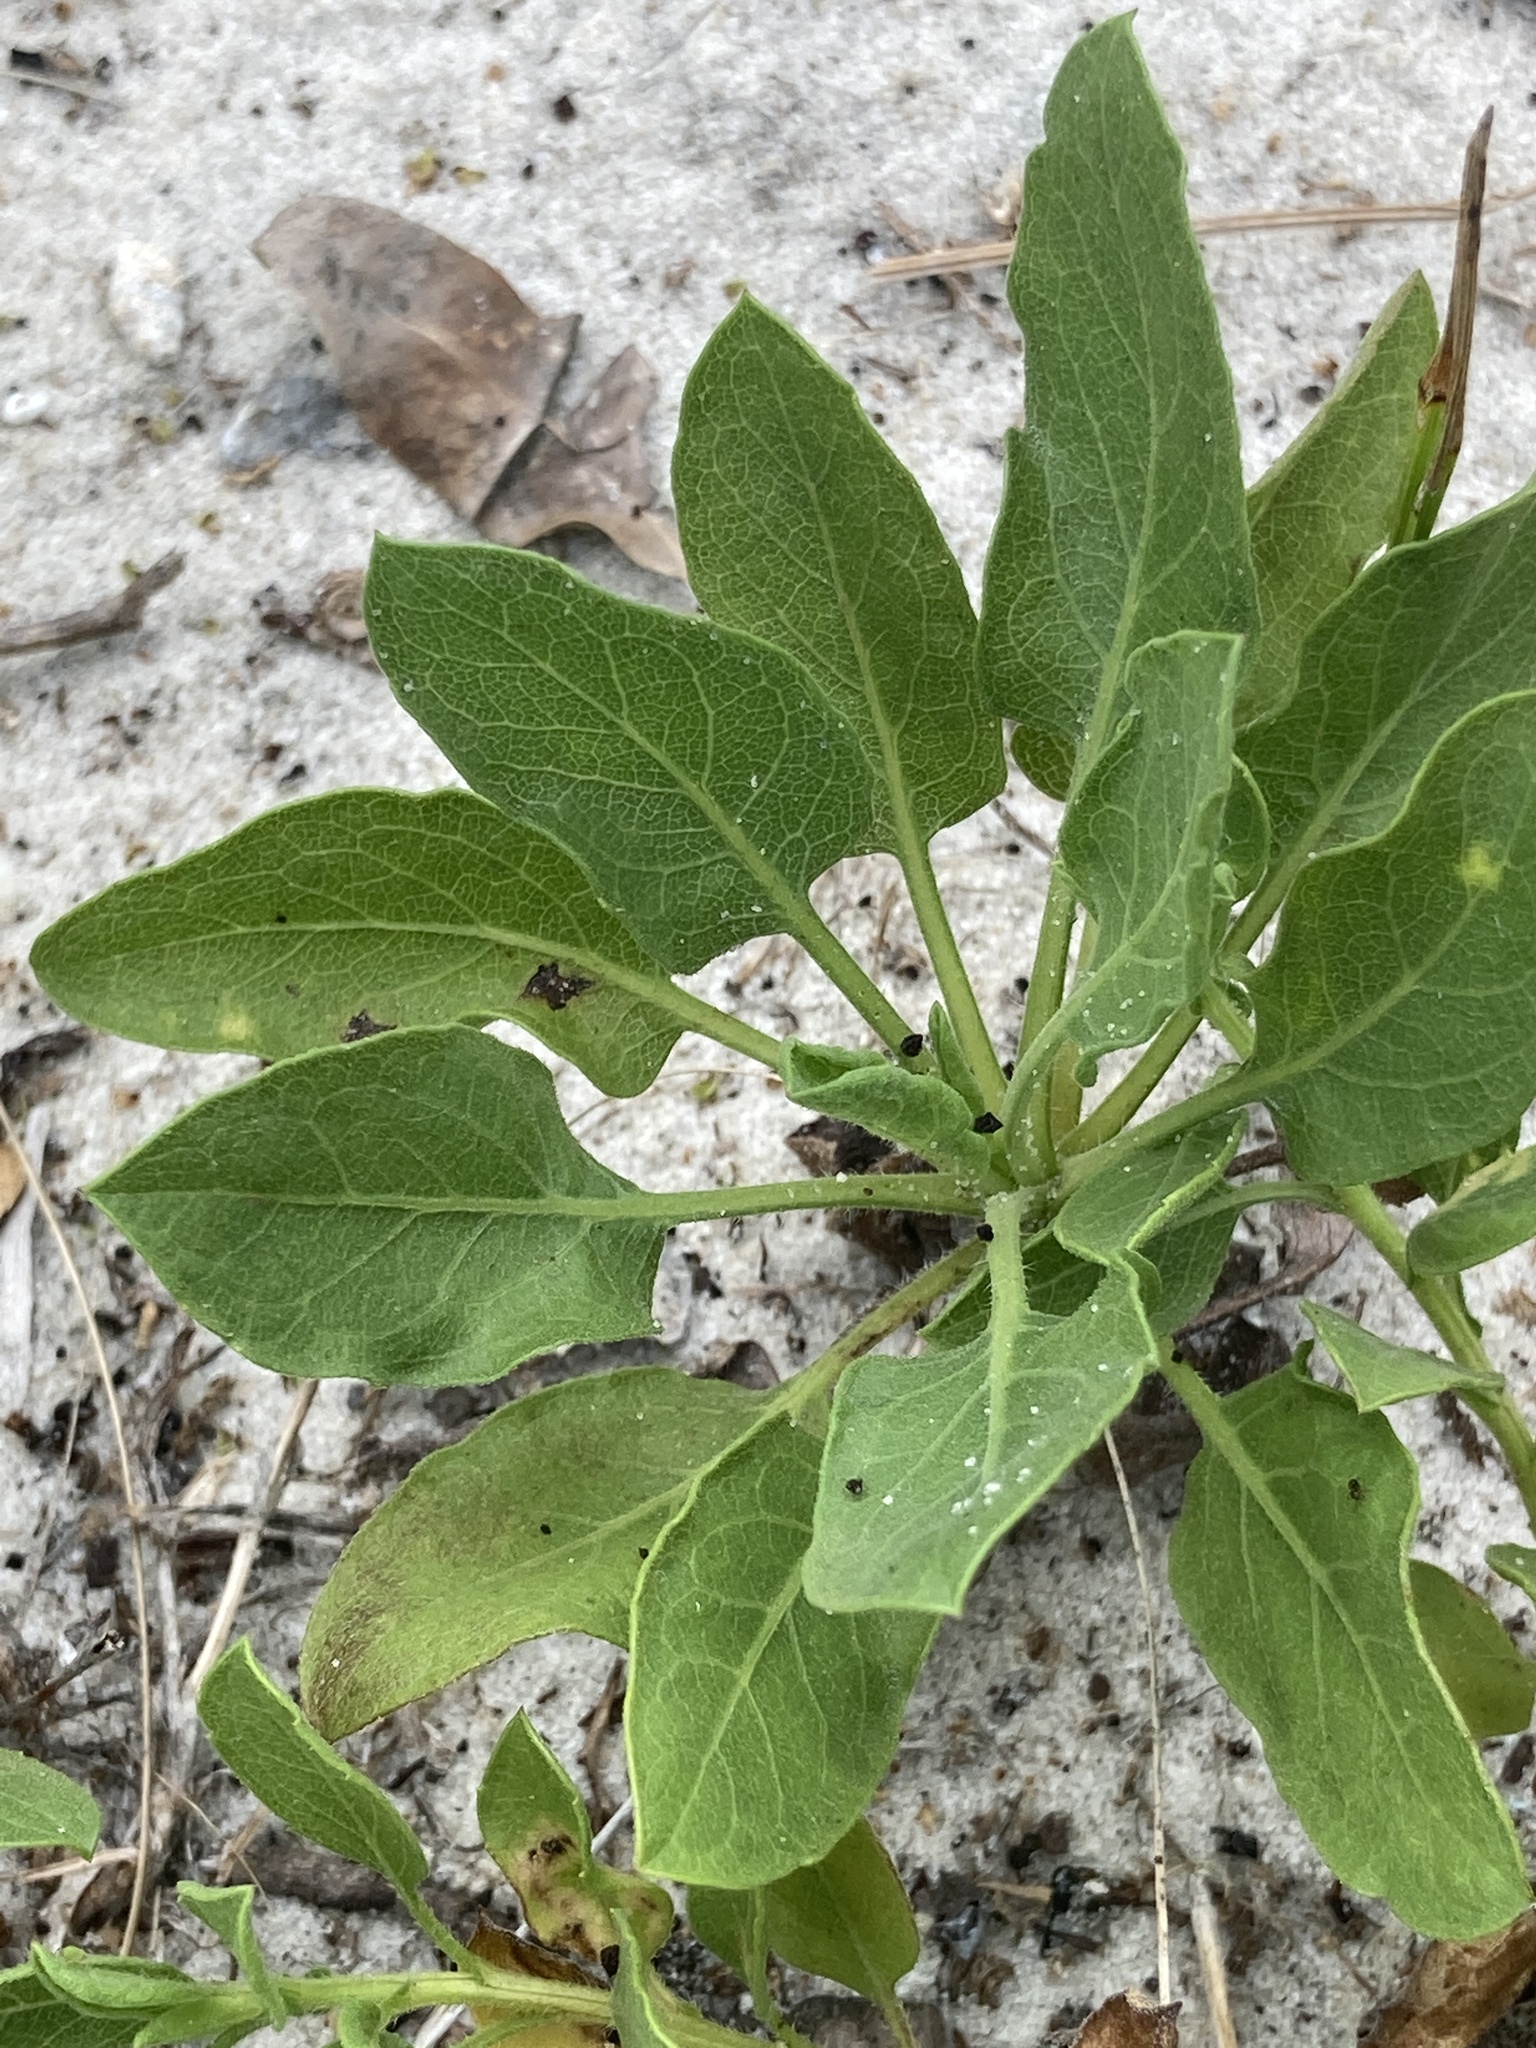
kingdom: Plantae
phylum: Tracheophyta
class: Magnoliopsida
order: Asterales
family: Asteraceae
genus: Heterotheca
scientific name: Heterotheca subaxillaris
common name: Camphorweed
